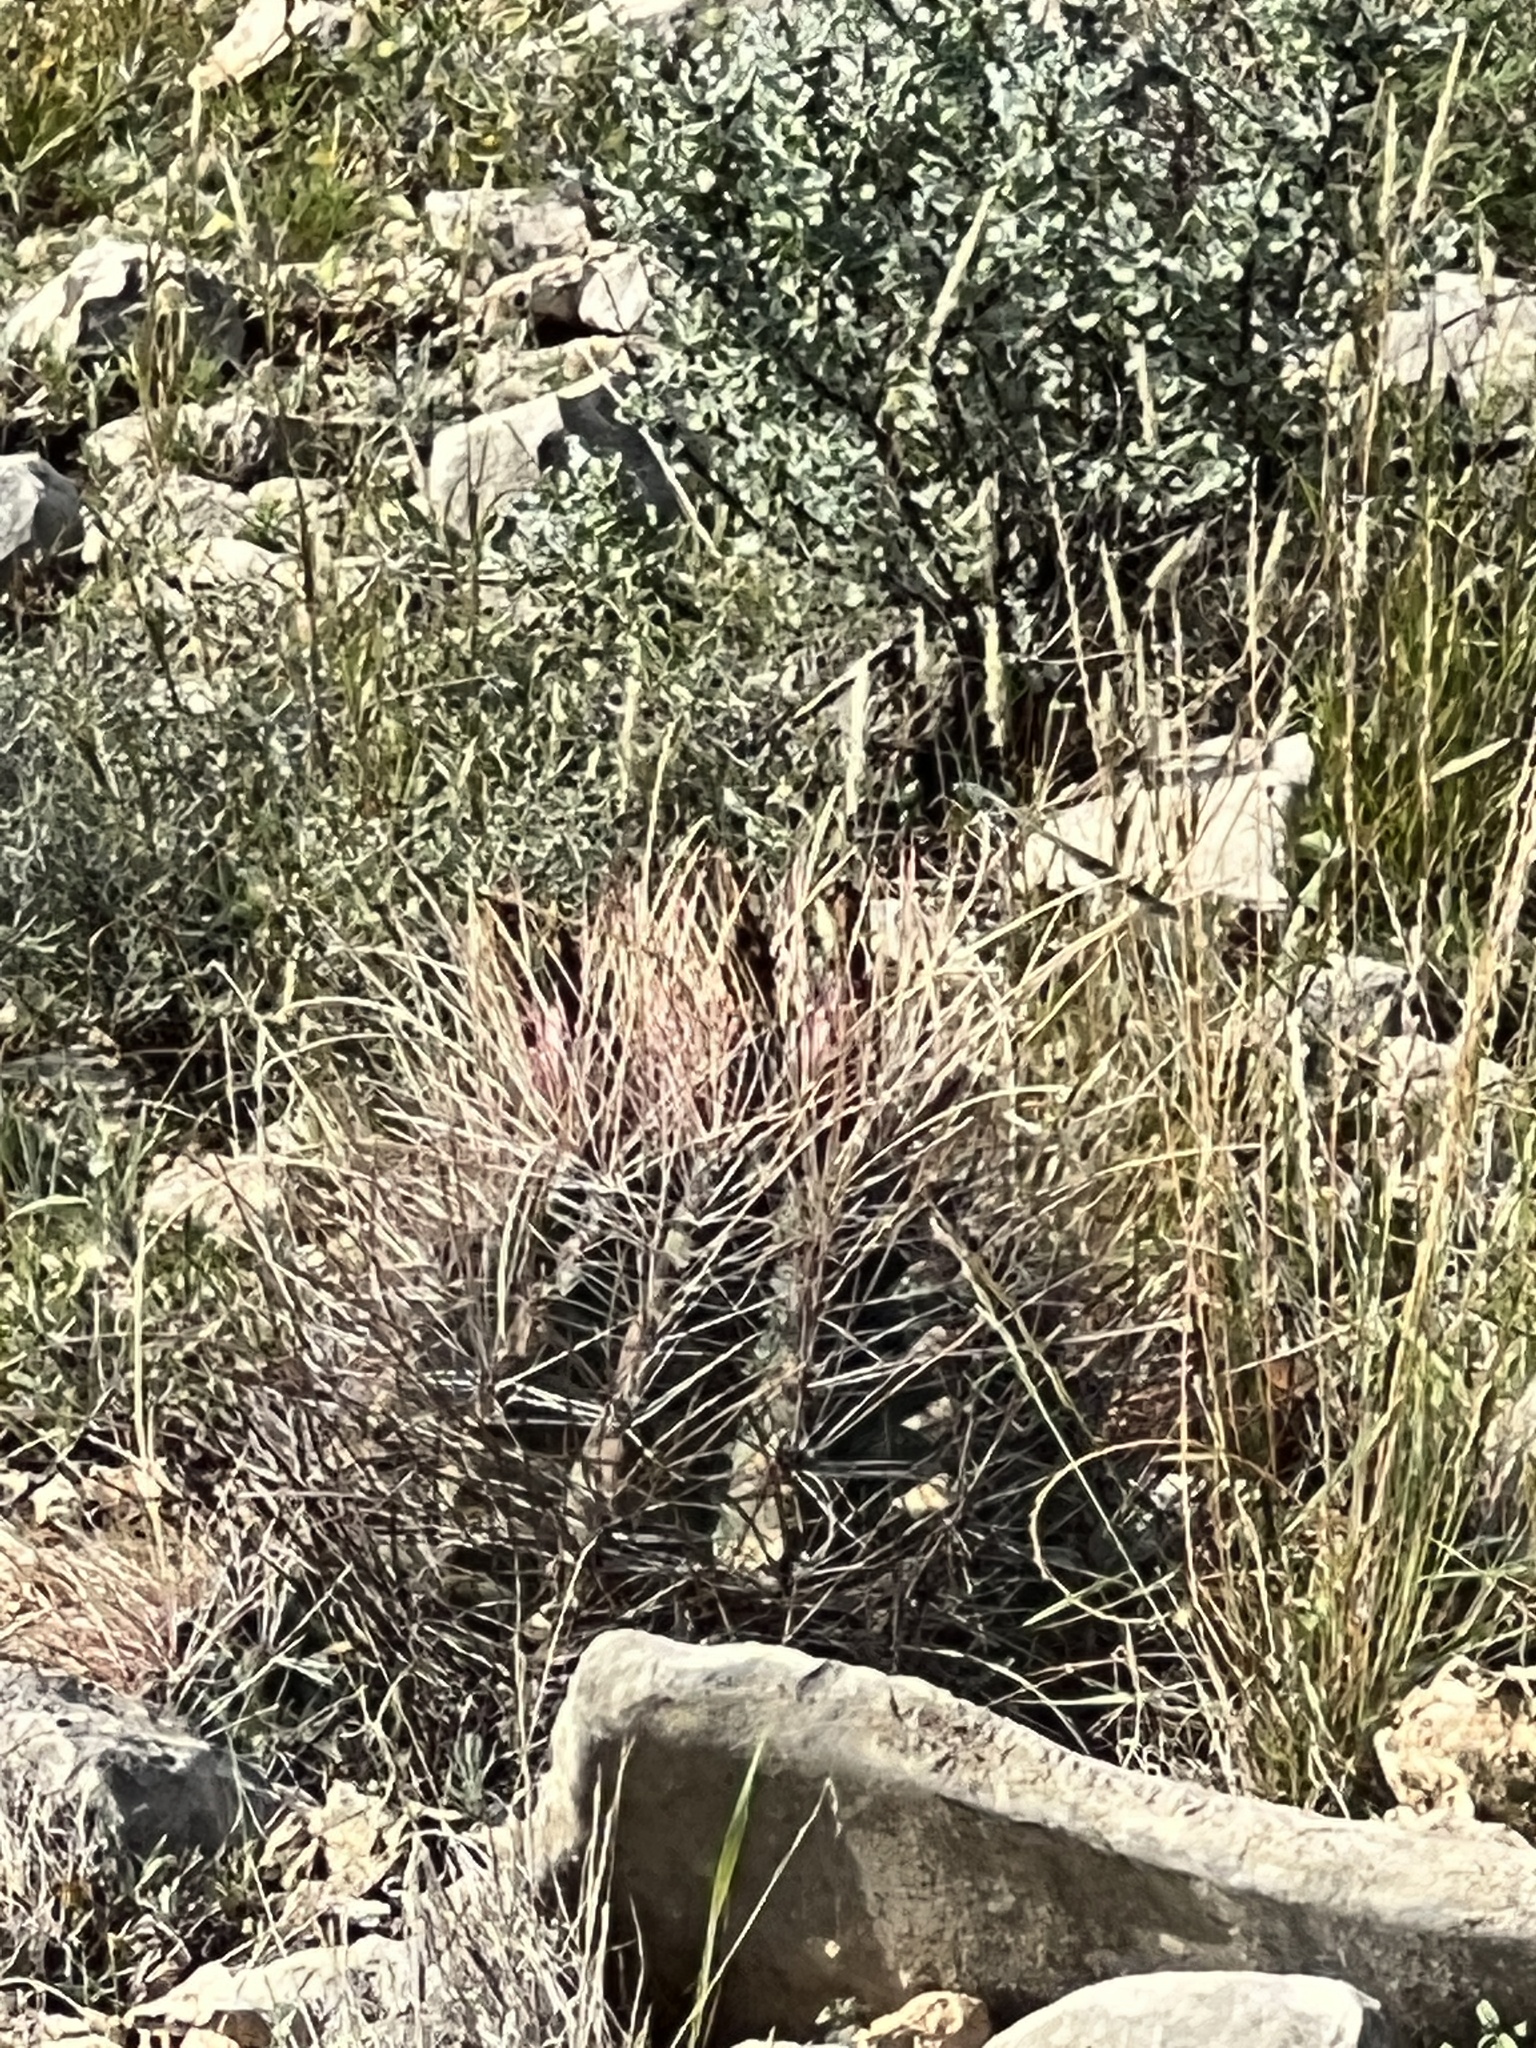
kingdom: Plantae
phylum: Tracheophyta
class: Magnoliopsida
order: Caryophyllales
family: Cactaceae
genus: Bisnaga
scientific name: Bisnaga hamatacantha
